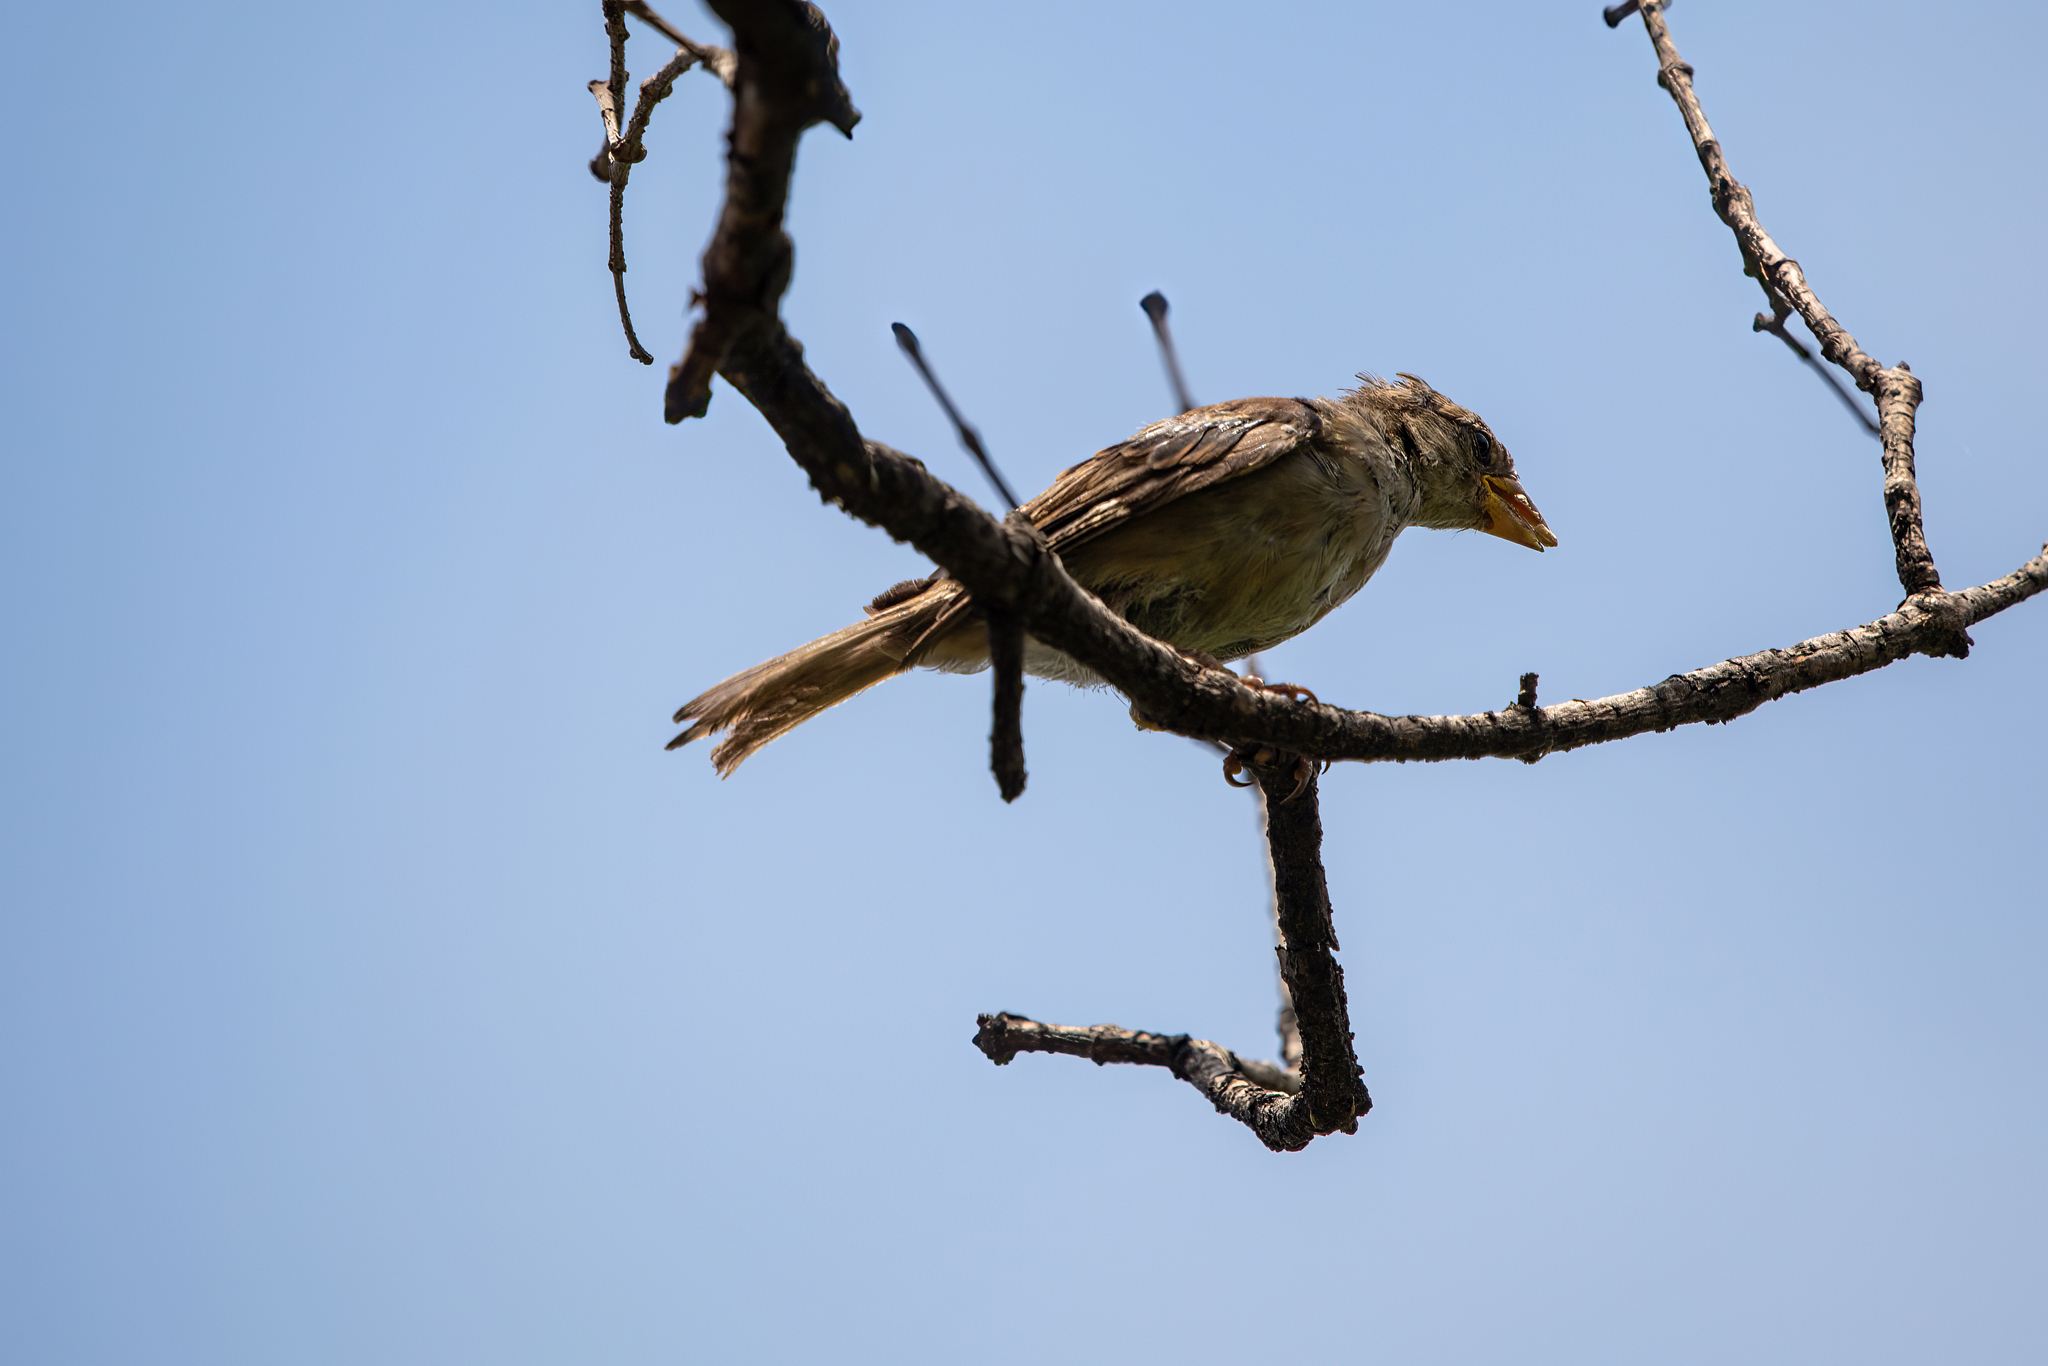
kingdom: Animalia
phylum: Chordata
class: Aves
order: Passeriformes
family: Passeridae
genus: Passer
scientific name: Passer domesticus
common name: House sparrow
